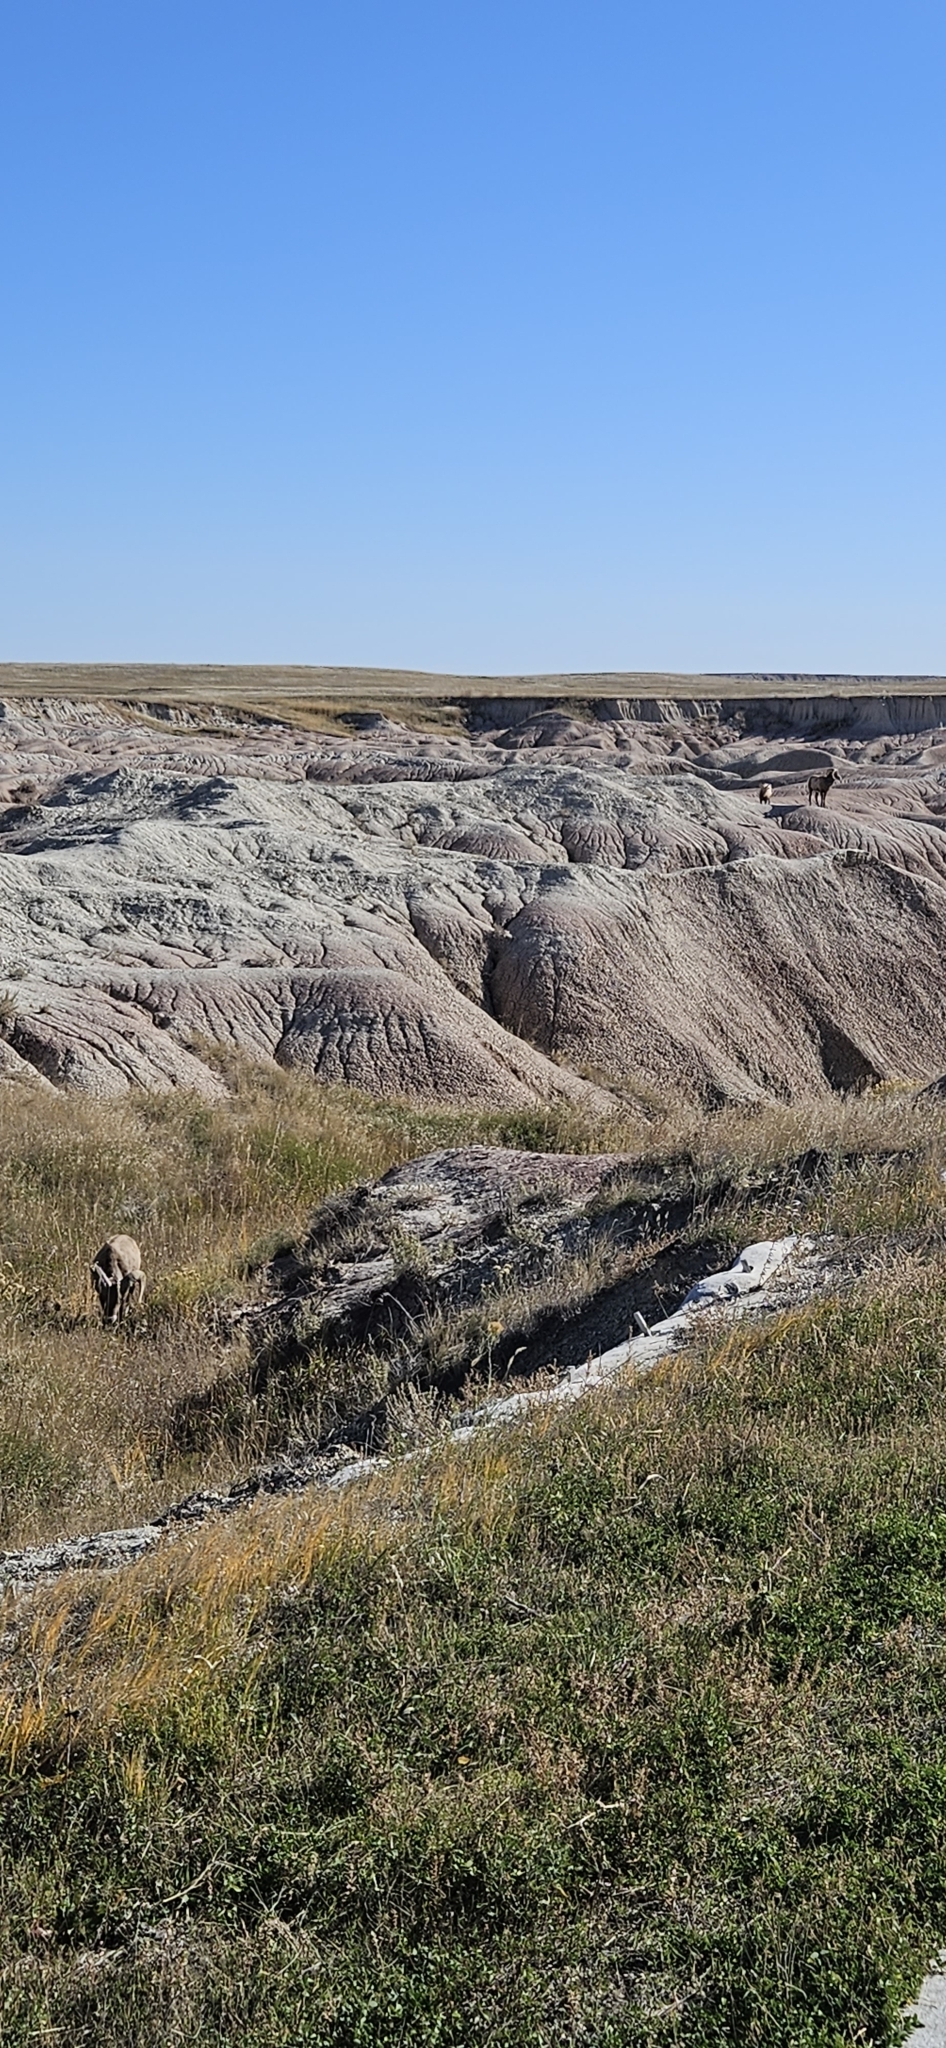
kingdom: Animalia
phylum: Chordata
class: Mammalia
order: Artiodactyla
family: Bovidae
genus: Ovis
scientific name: Ovis canadensis
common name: Bighorn sheep
